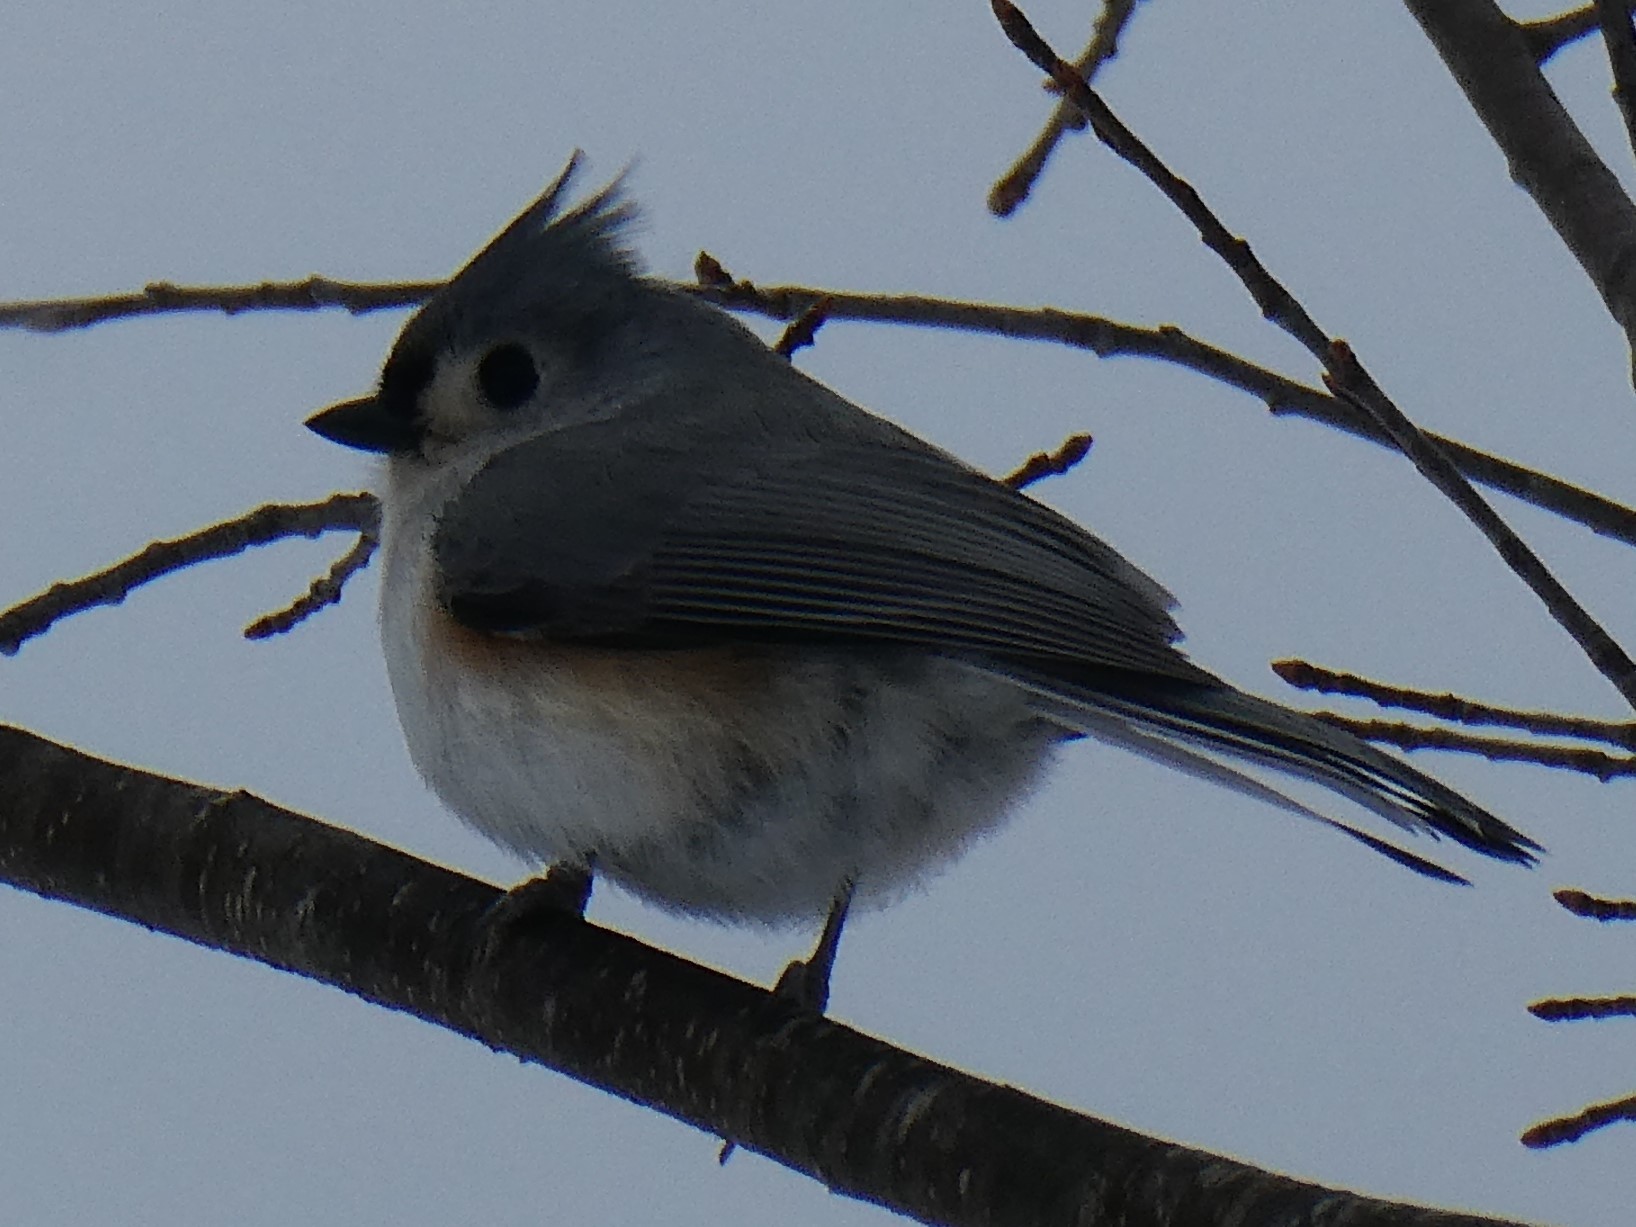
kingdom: Animalia
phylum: Chordata
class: Aves
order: Passeriformes
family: Paridae
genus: Baeolophus
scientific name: Baeolophus bicolor
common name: Tufted titmouse
